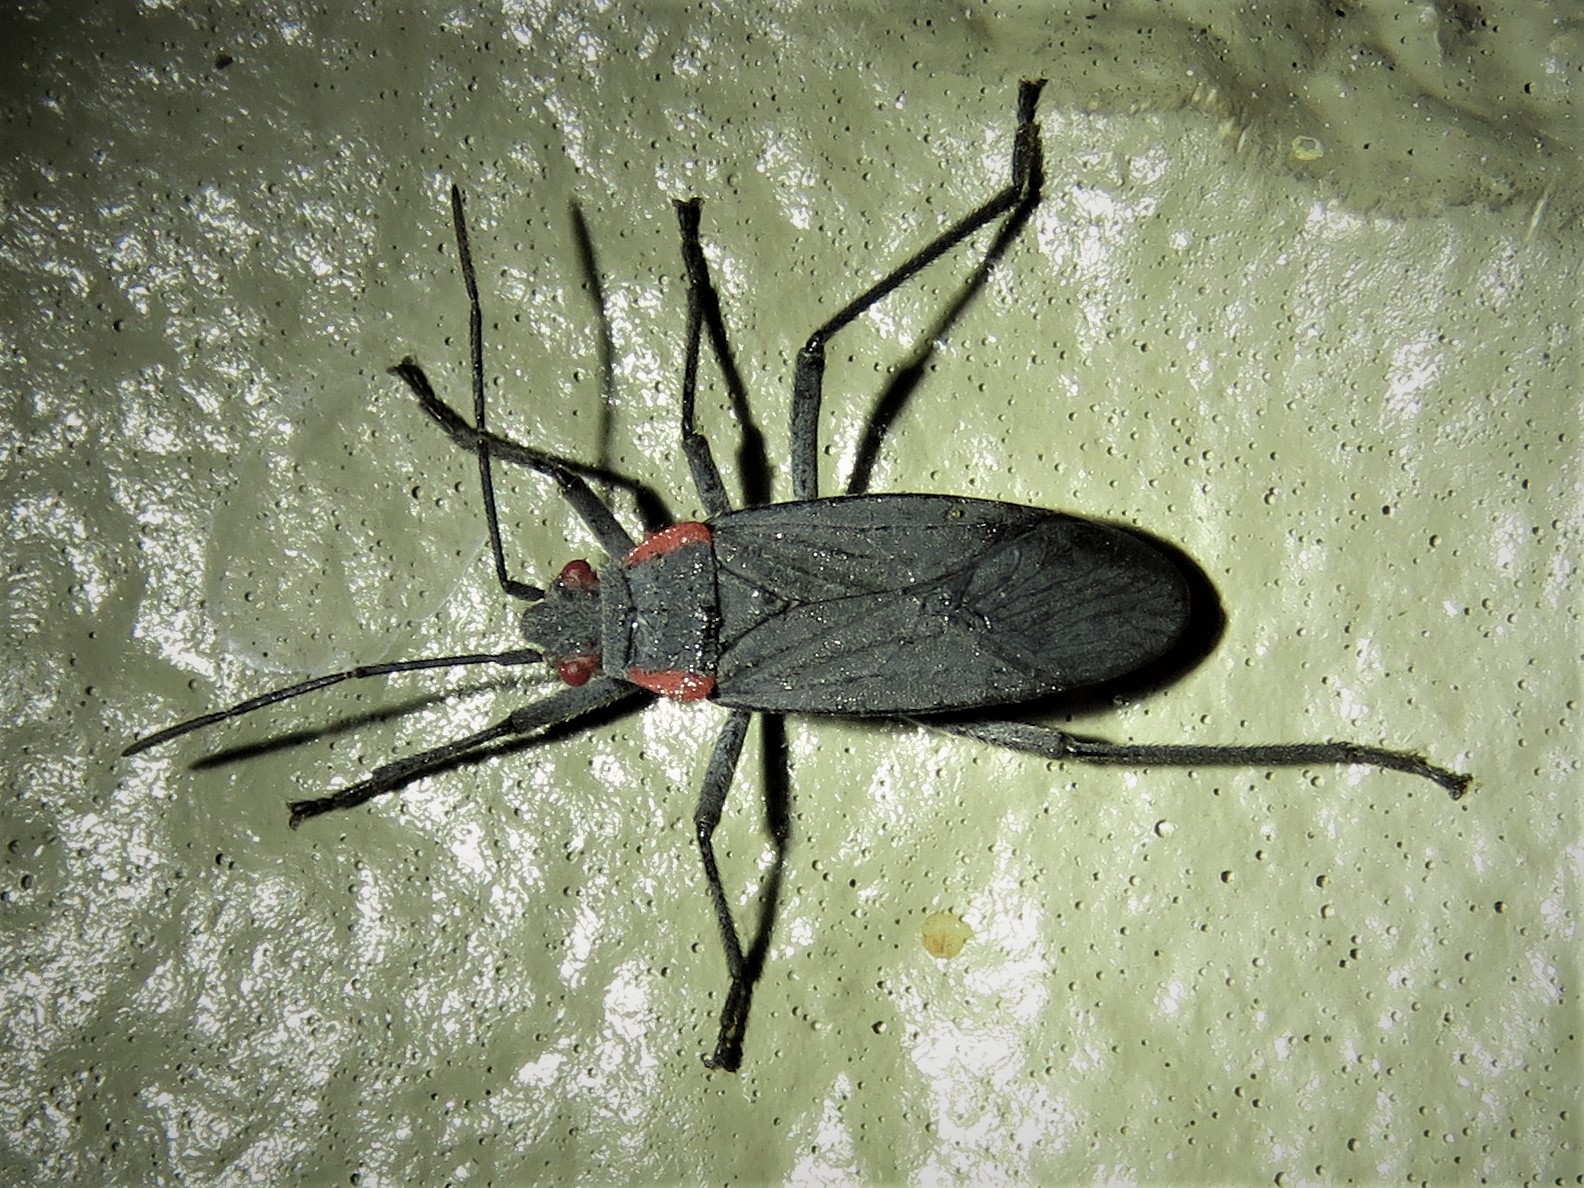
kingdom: Animalia
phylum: Arthropoda
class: Insecta
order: Hemiptera
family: Rhopalidae
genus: Jadera
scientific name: Jadera haematoloma
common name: Red-shouldered bug
